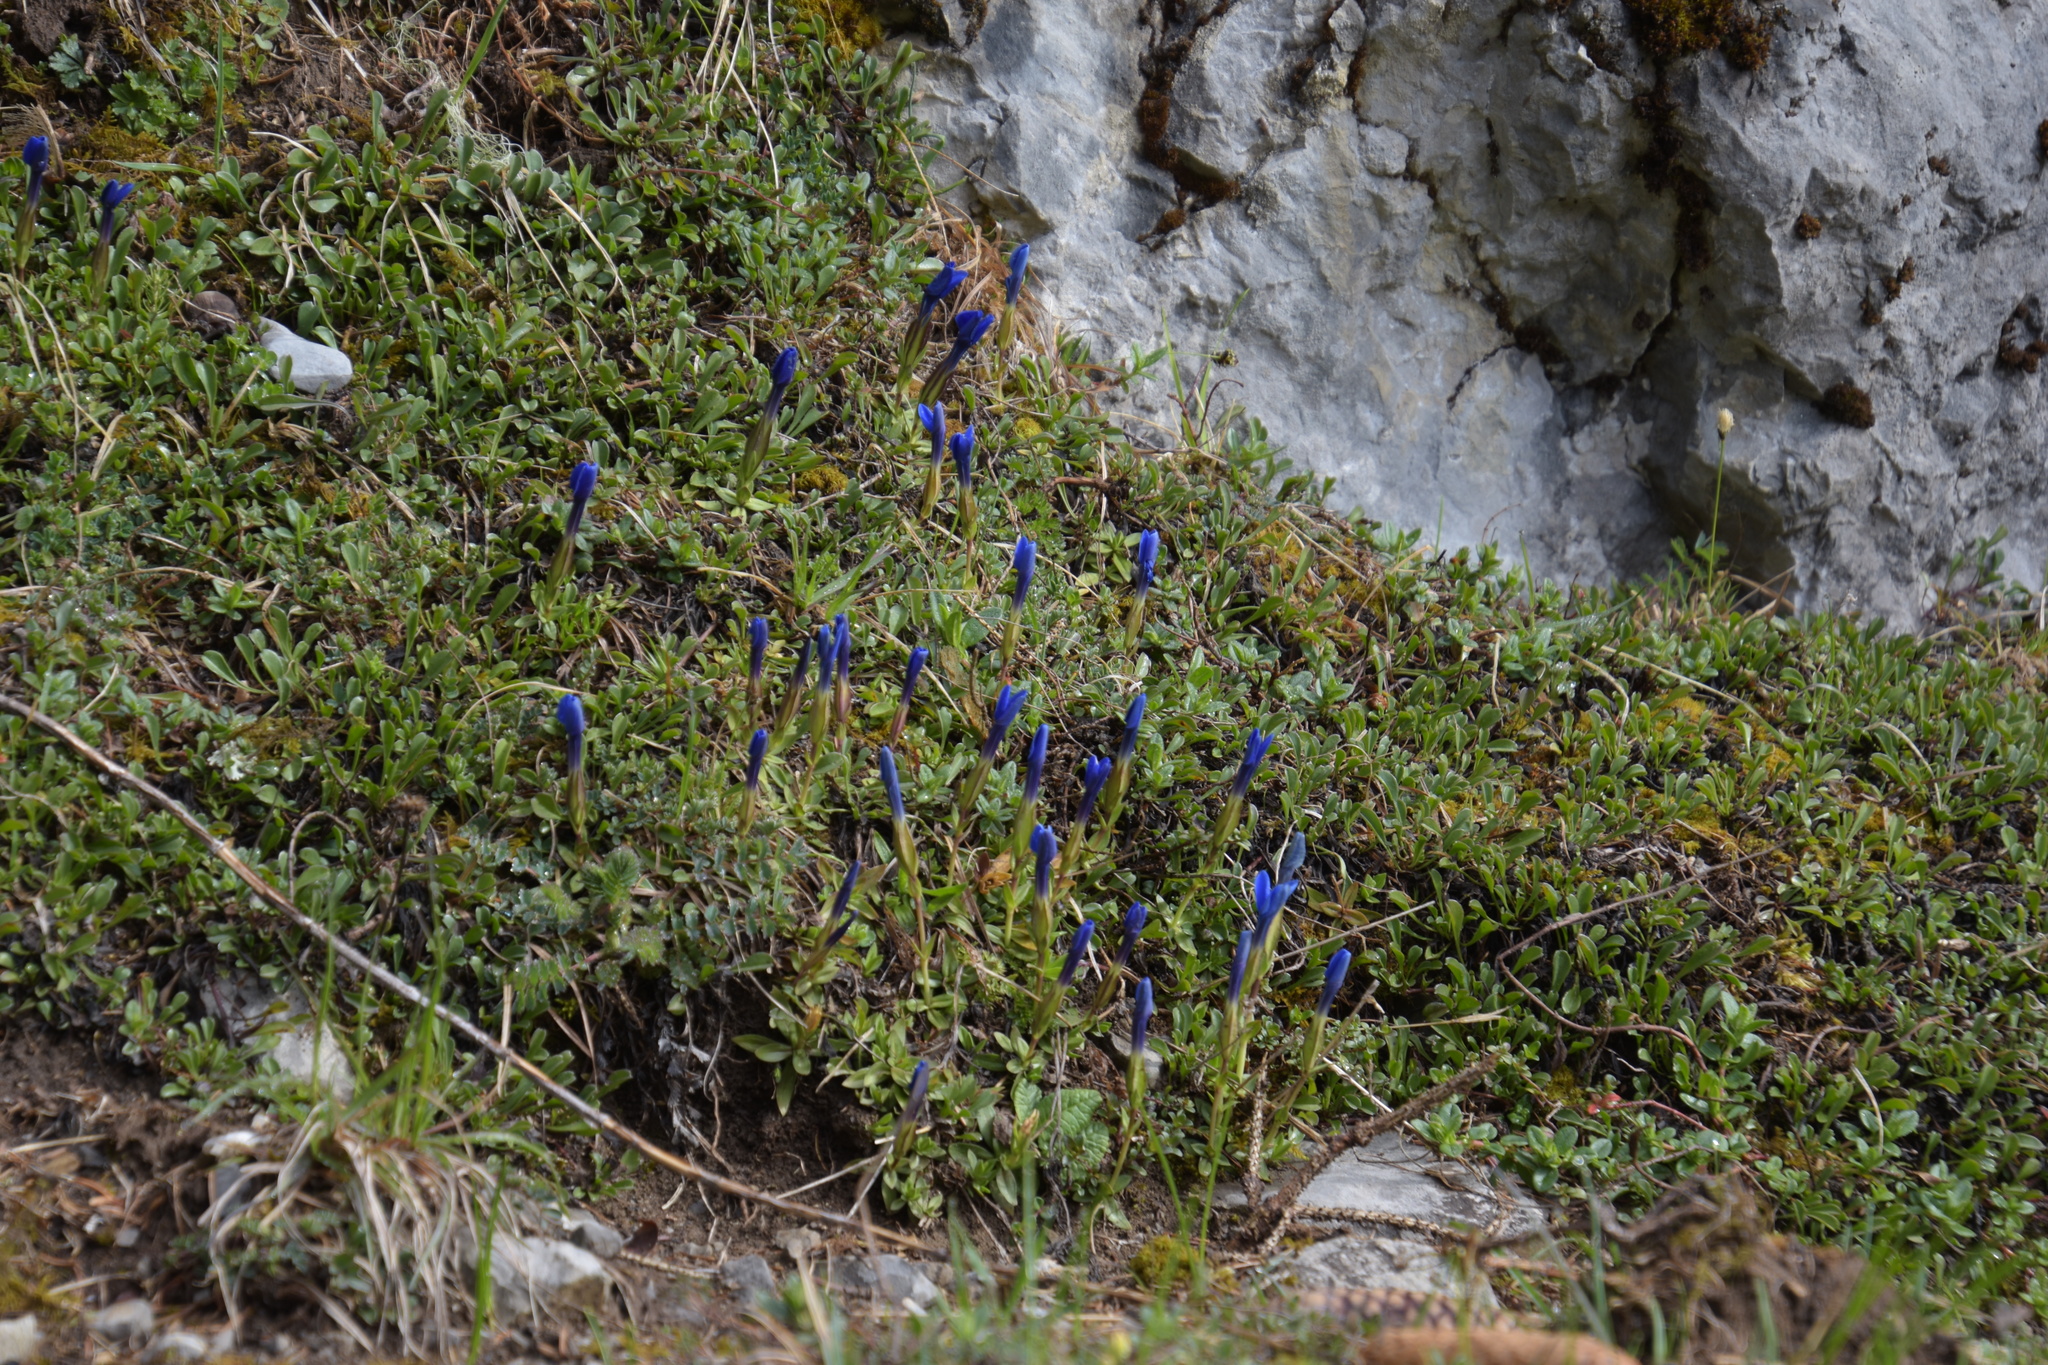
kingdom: Plantae
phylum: Tracheophyta
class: Magnoliopsida
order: Gentianales
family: Gentianaceae
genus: Gentiana
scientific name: Gentiana verna
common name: Spring gentian
